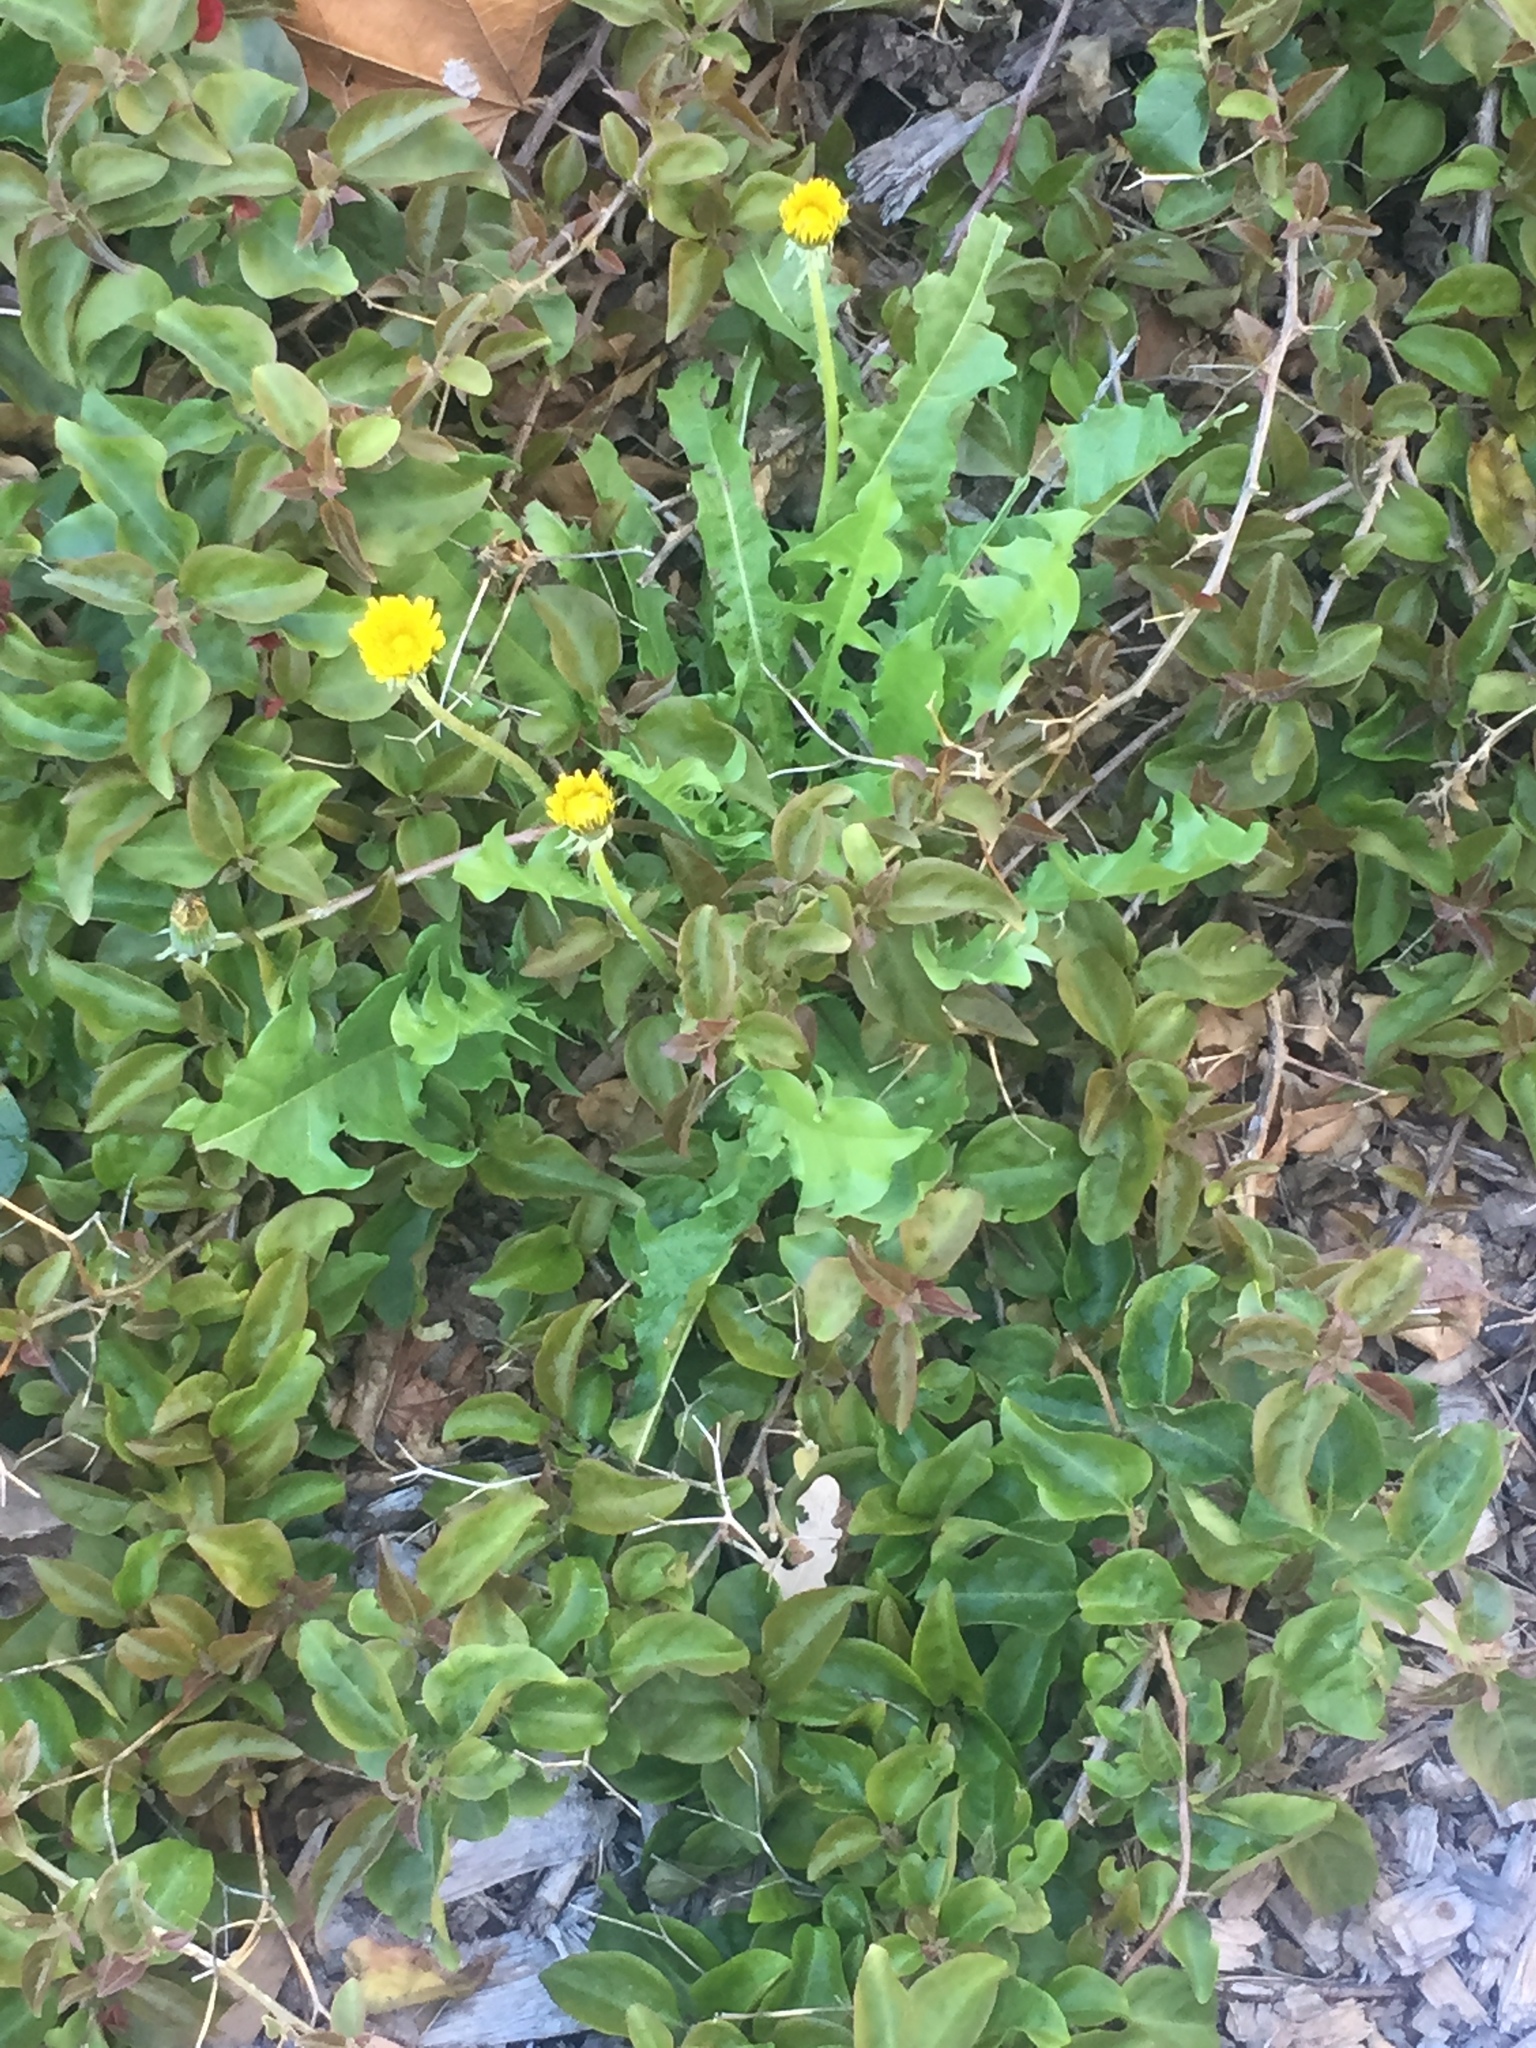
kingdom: Plantae
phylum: Tracheophyta
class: Magnoliopsida
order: Asterales
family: Asteraceae
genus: Taraxacum
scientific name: Taraxacum officinale
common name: Common dandelion
